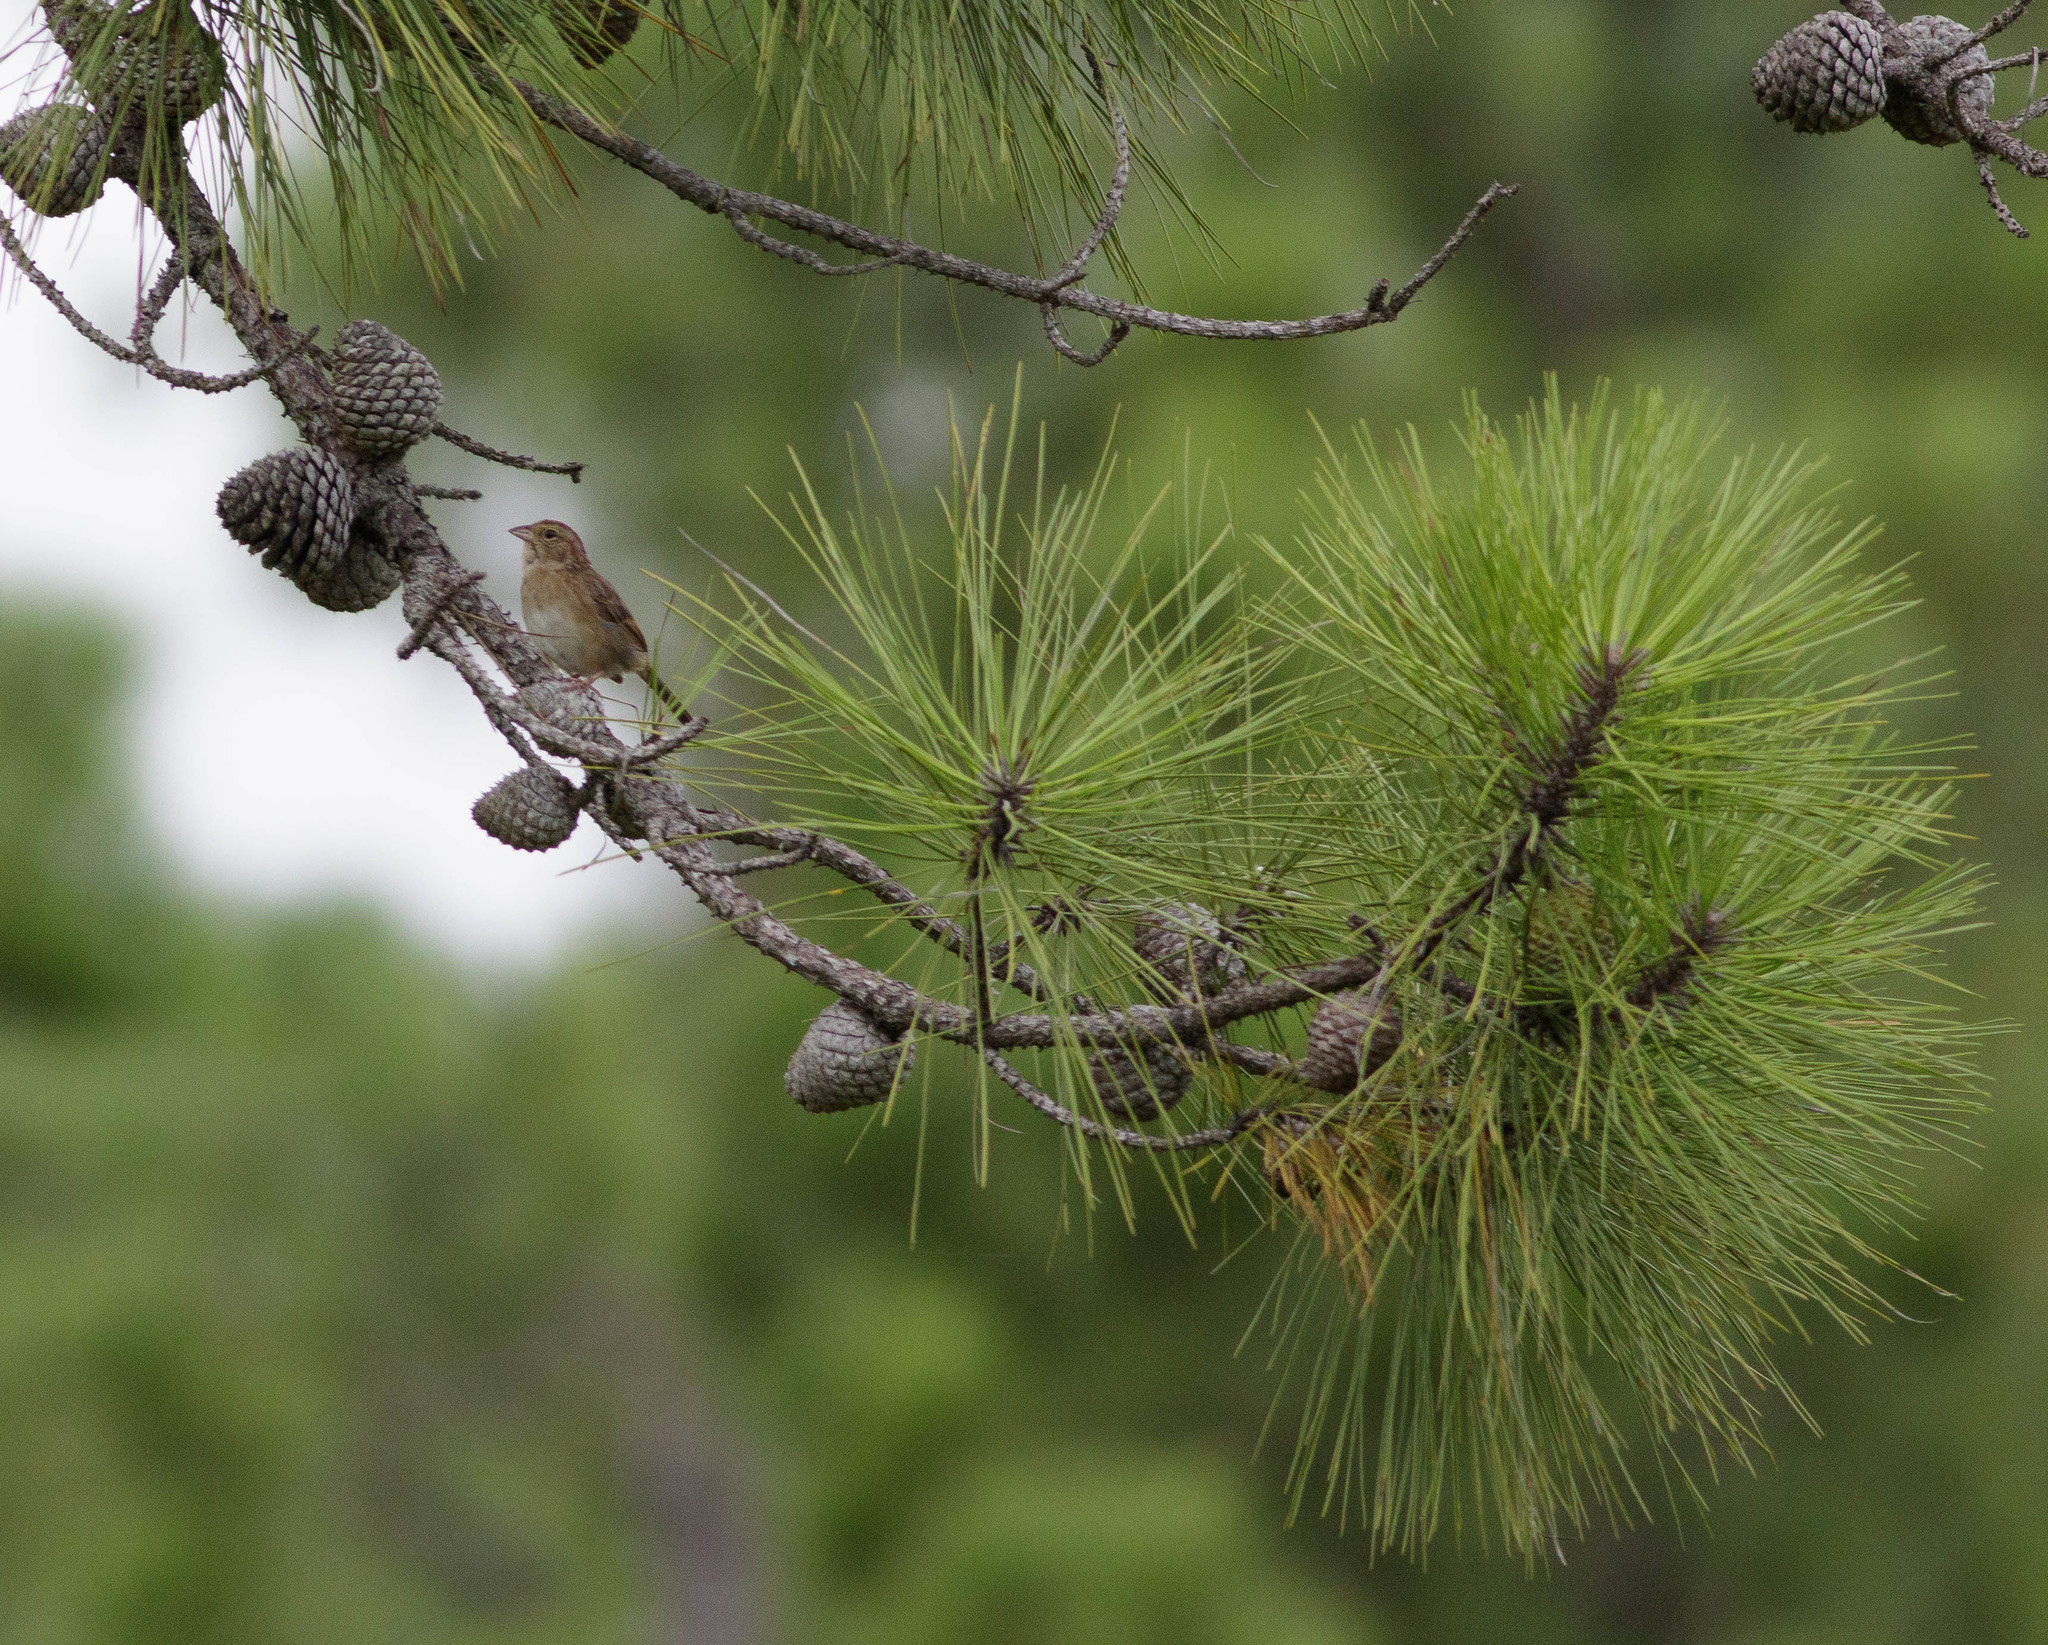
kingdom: Animalia
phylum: Chordata
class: Aves
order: Passeriformes
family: Passerellidae
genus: Peucaea
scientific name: Peucaea aestivalis
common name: Bachman's sparrow
